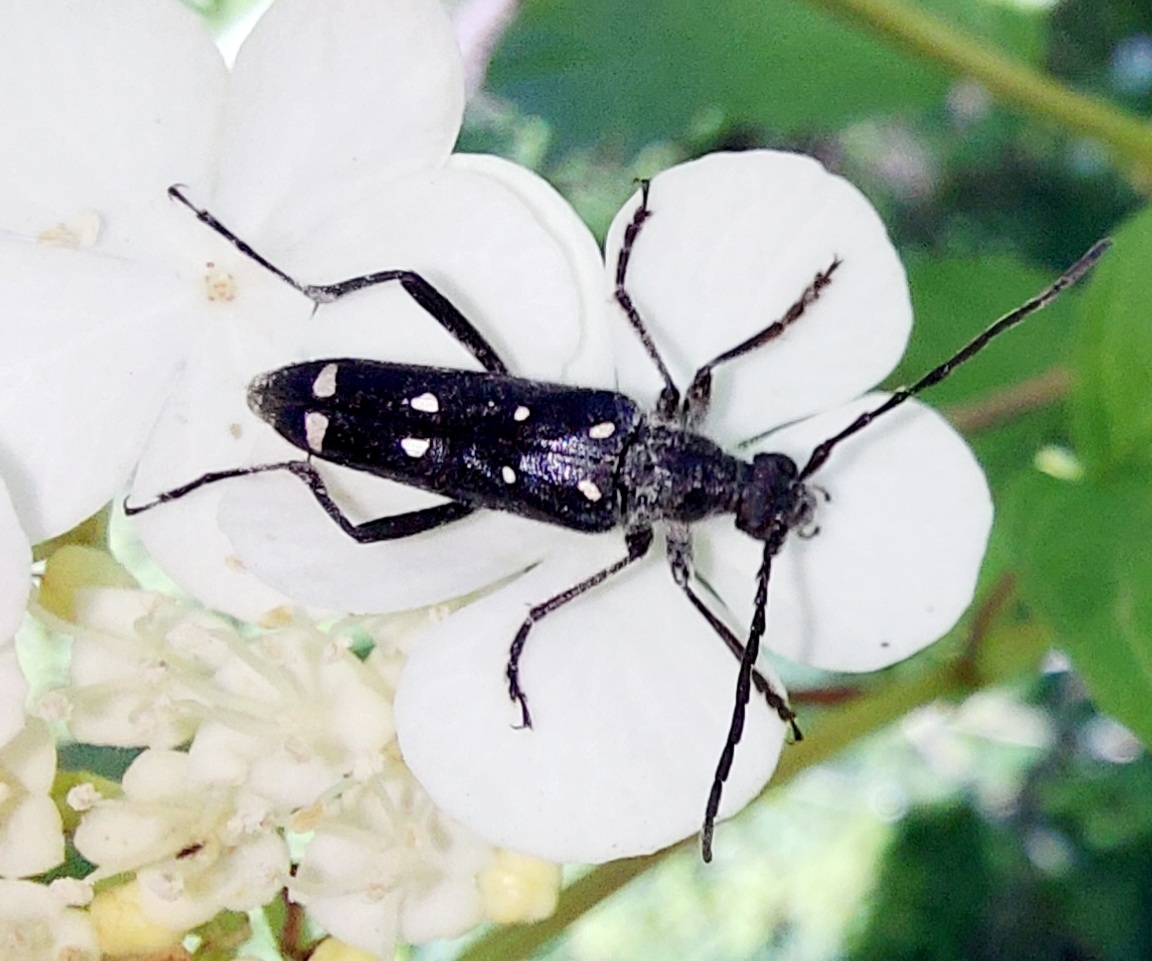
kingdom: Animalia
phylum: Arthropoda
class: Insecta
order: Coleoptera
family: Cerambycidae
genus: Leptura
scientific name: Leptura duodecimguttata
